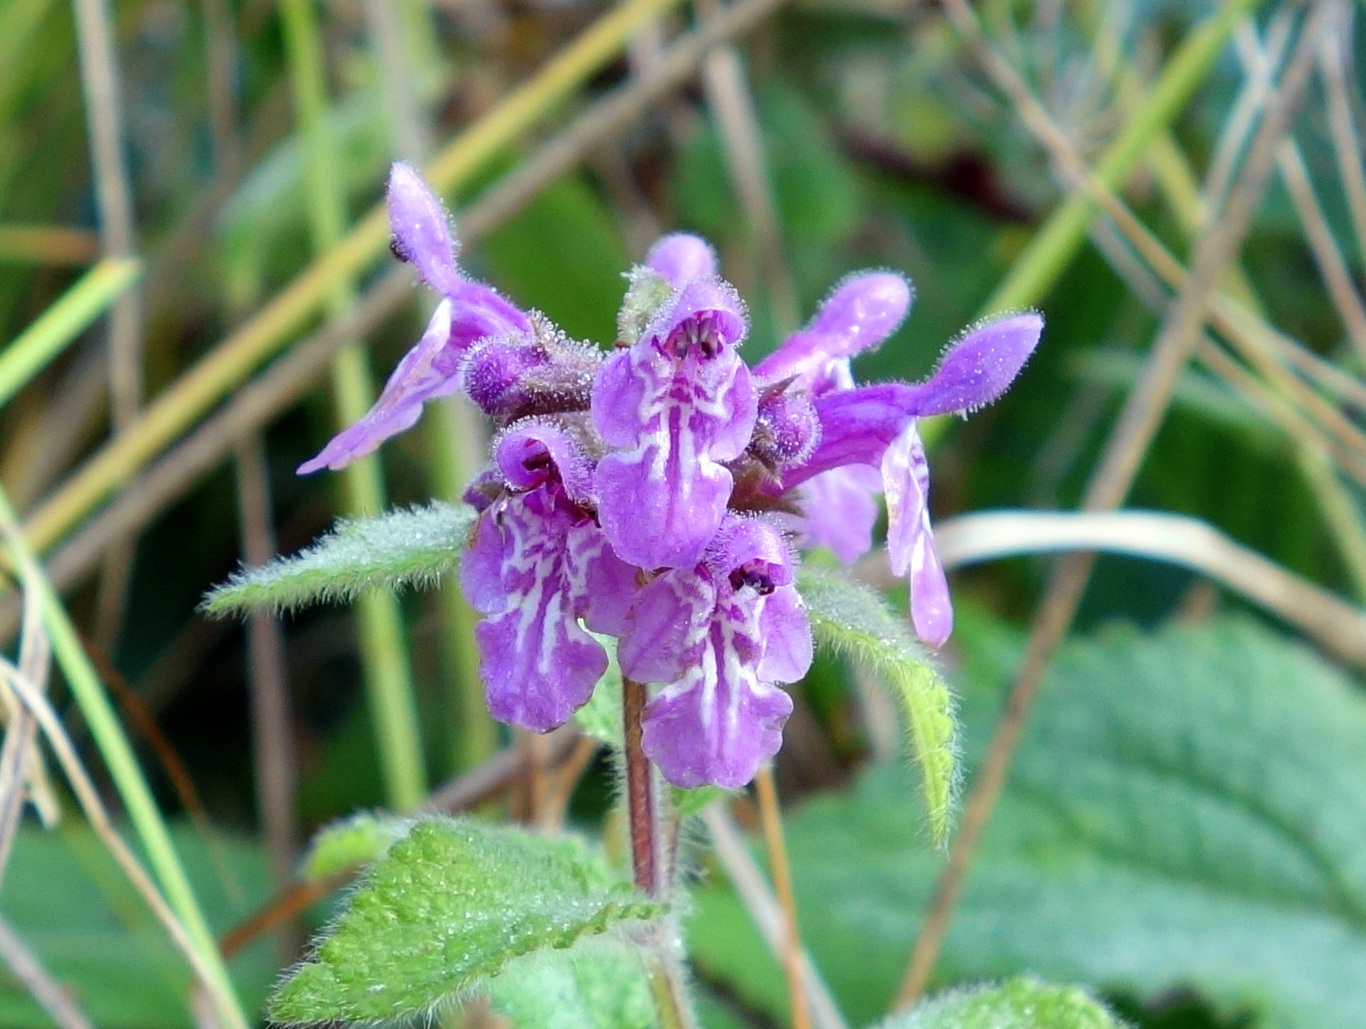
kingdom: Plantae
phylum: Tracheophyta
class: Magnoliopsida
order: Lamiales
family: Lamiaceae
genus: Stachys
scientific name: Stachys sylvatica
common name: Hedge woundwort
